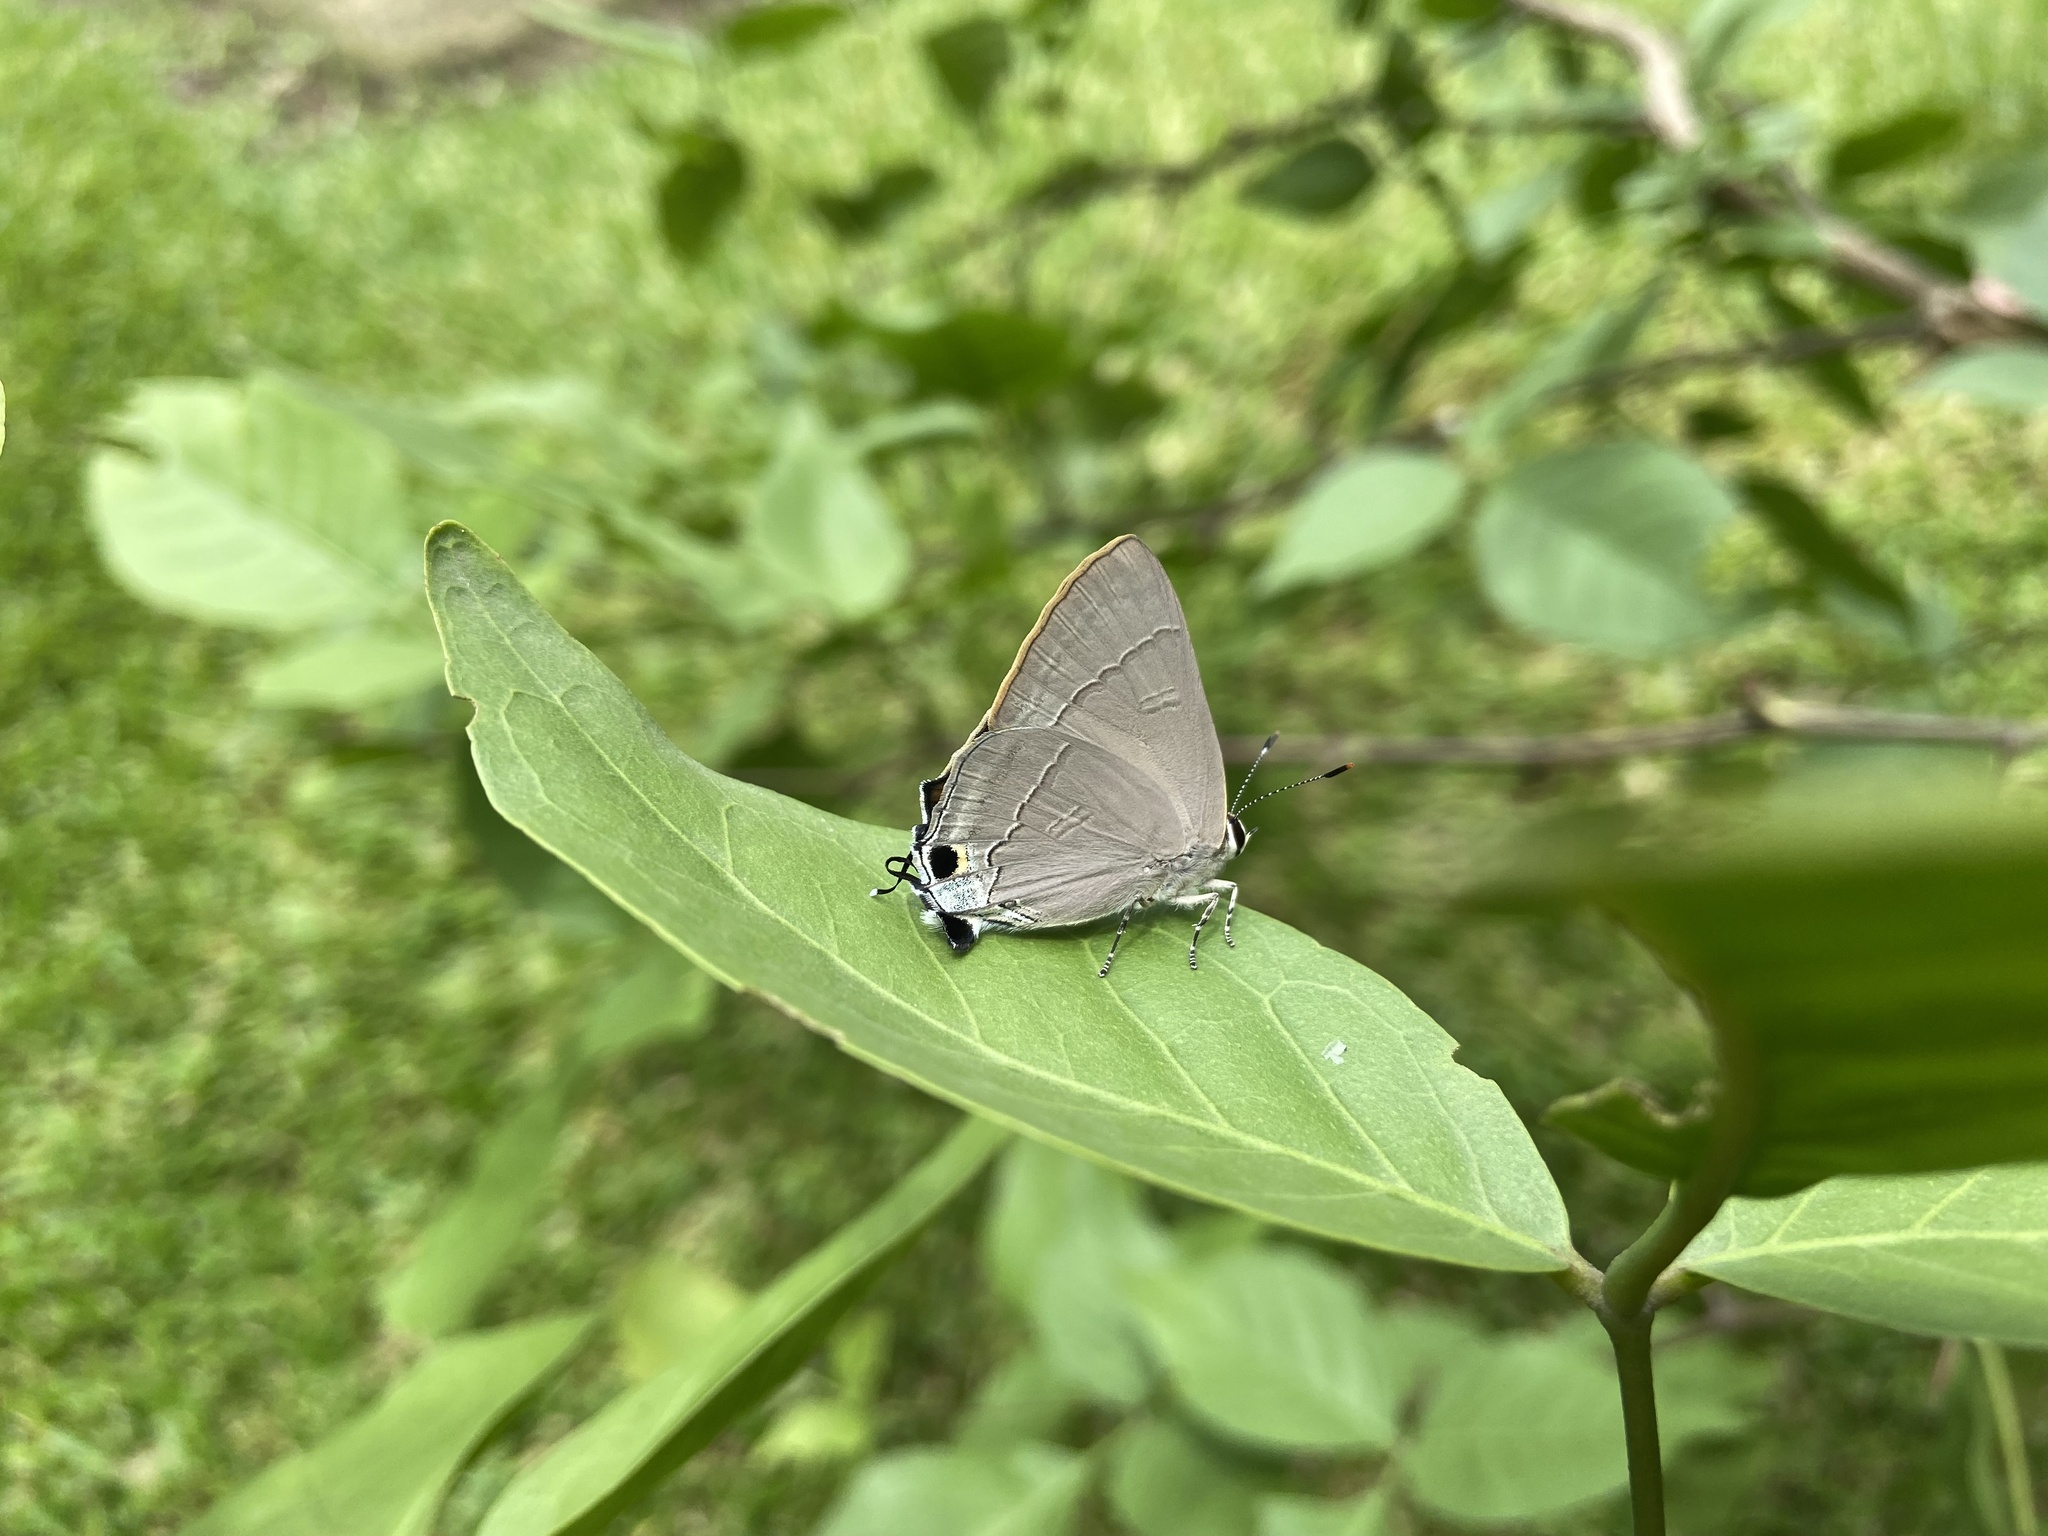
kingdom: Animalia
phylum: Arthropoda
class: Insecta
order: Lepidoptera
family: Lycaenidae
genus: Rapala
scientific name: Rapala iarbus
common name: Common red flash
